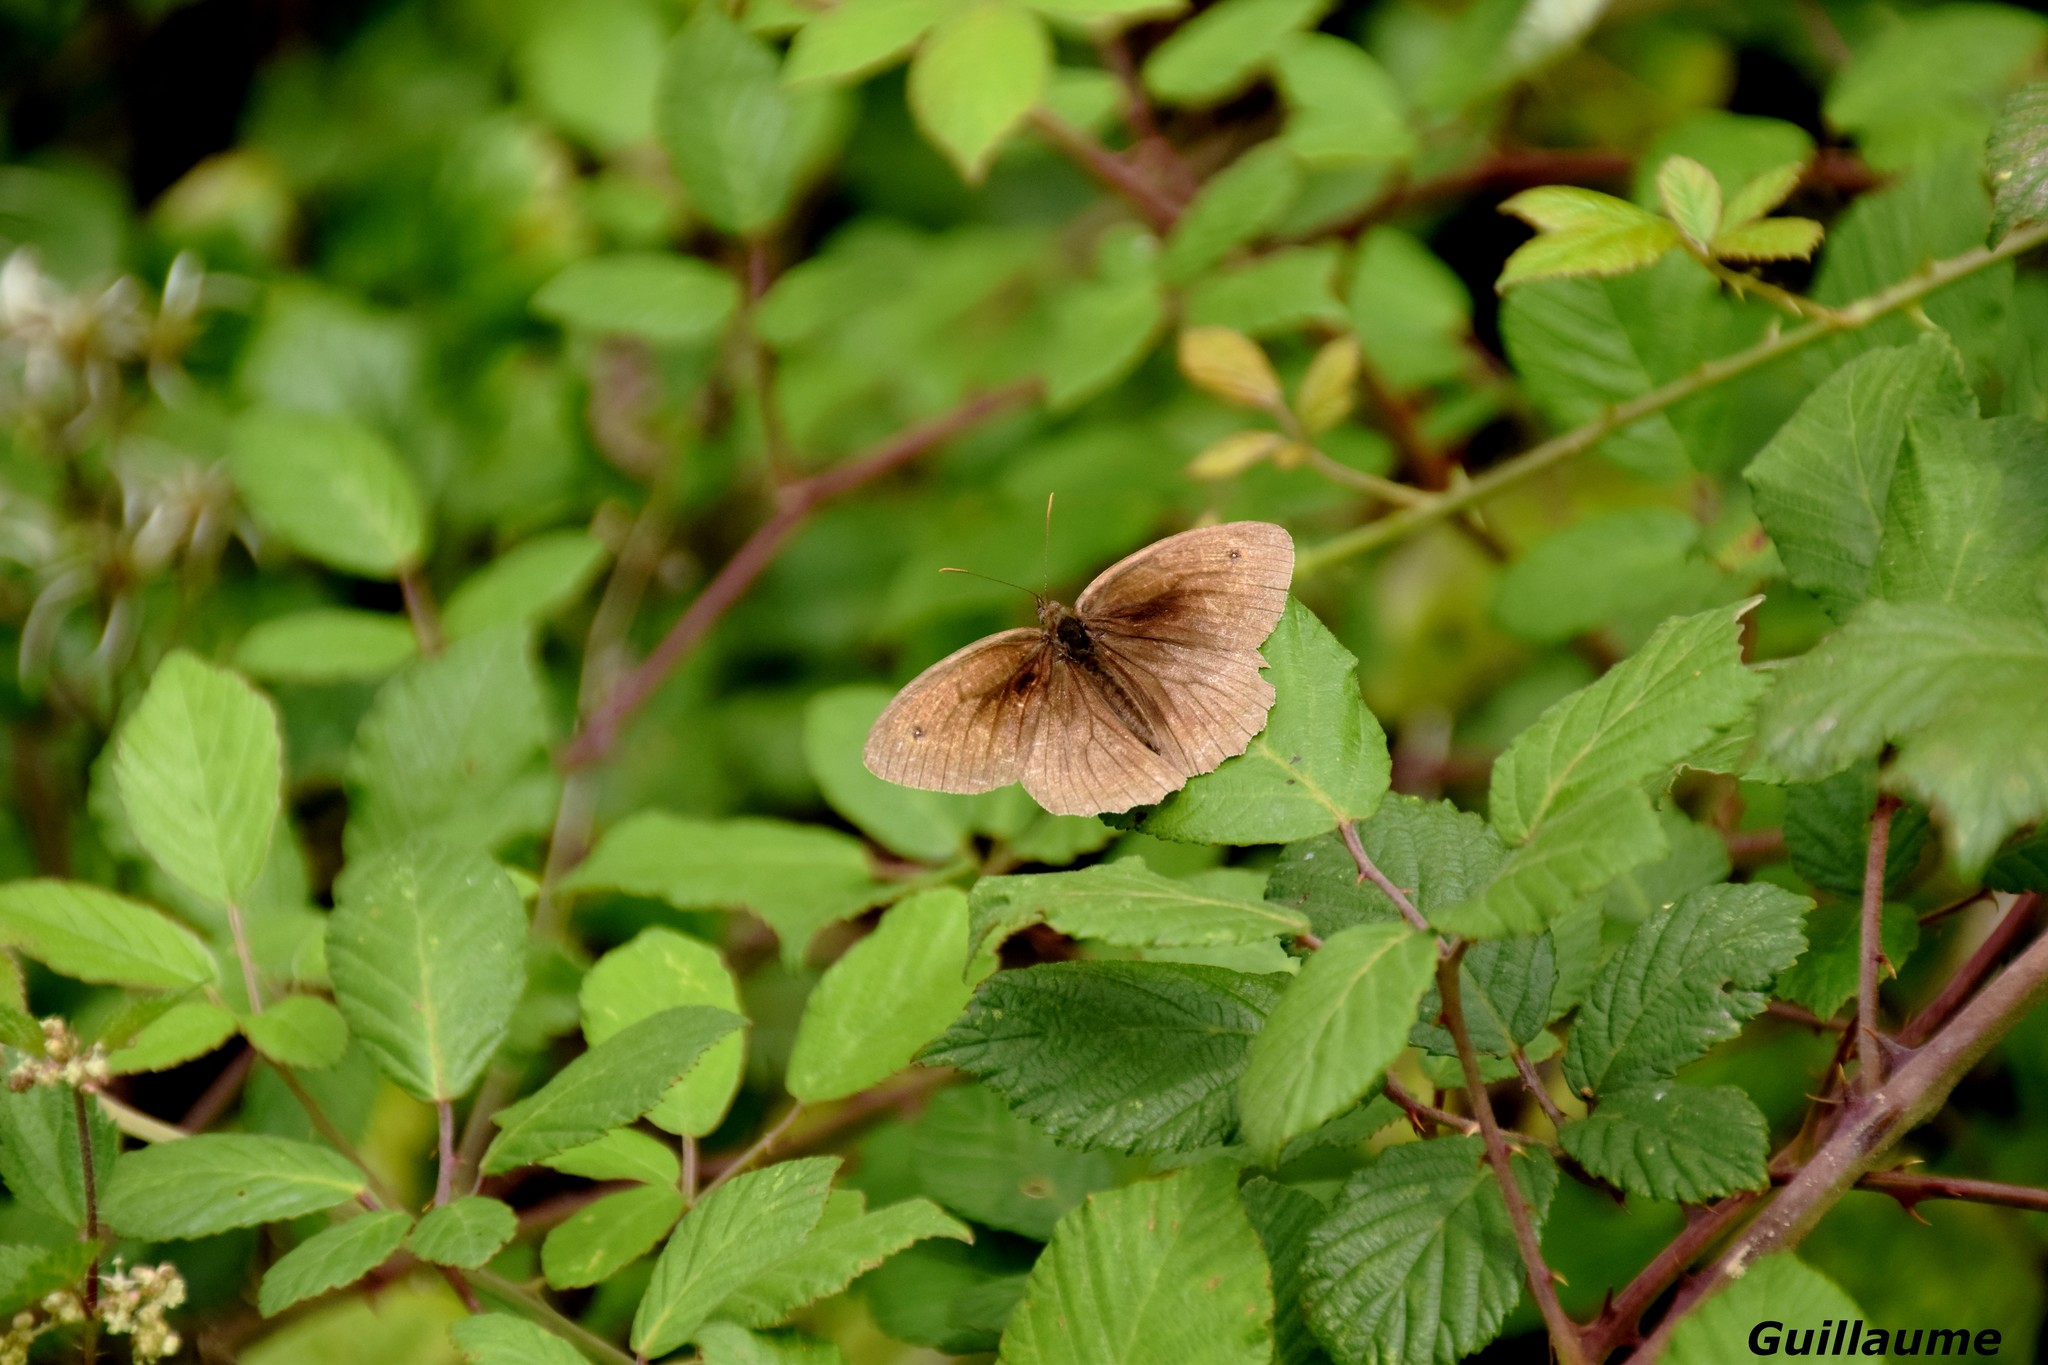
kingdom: Animalia
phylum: Arthropoda
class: Insecta
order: Lepidoptera
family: Nymphalidae
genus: Maniola
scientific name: Maniola jurtina
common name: Meadow brown
